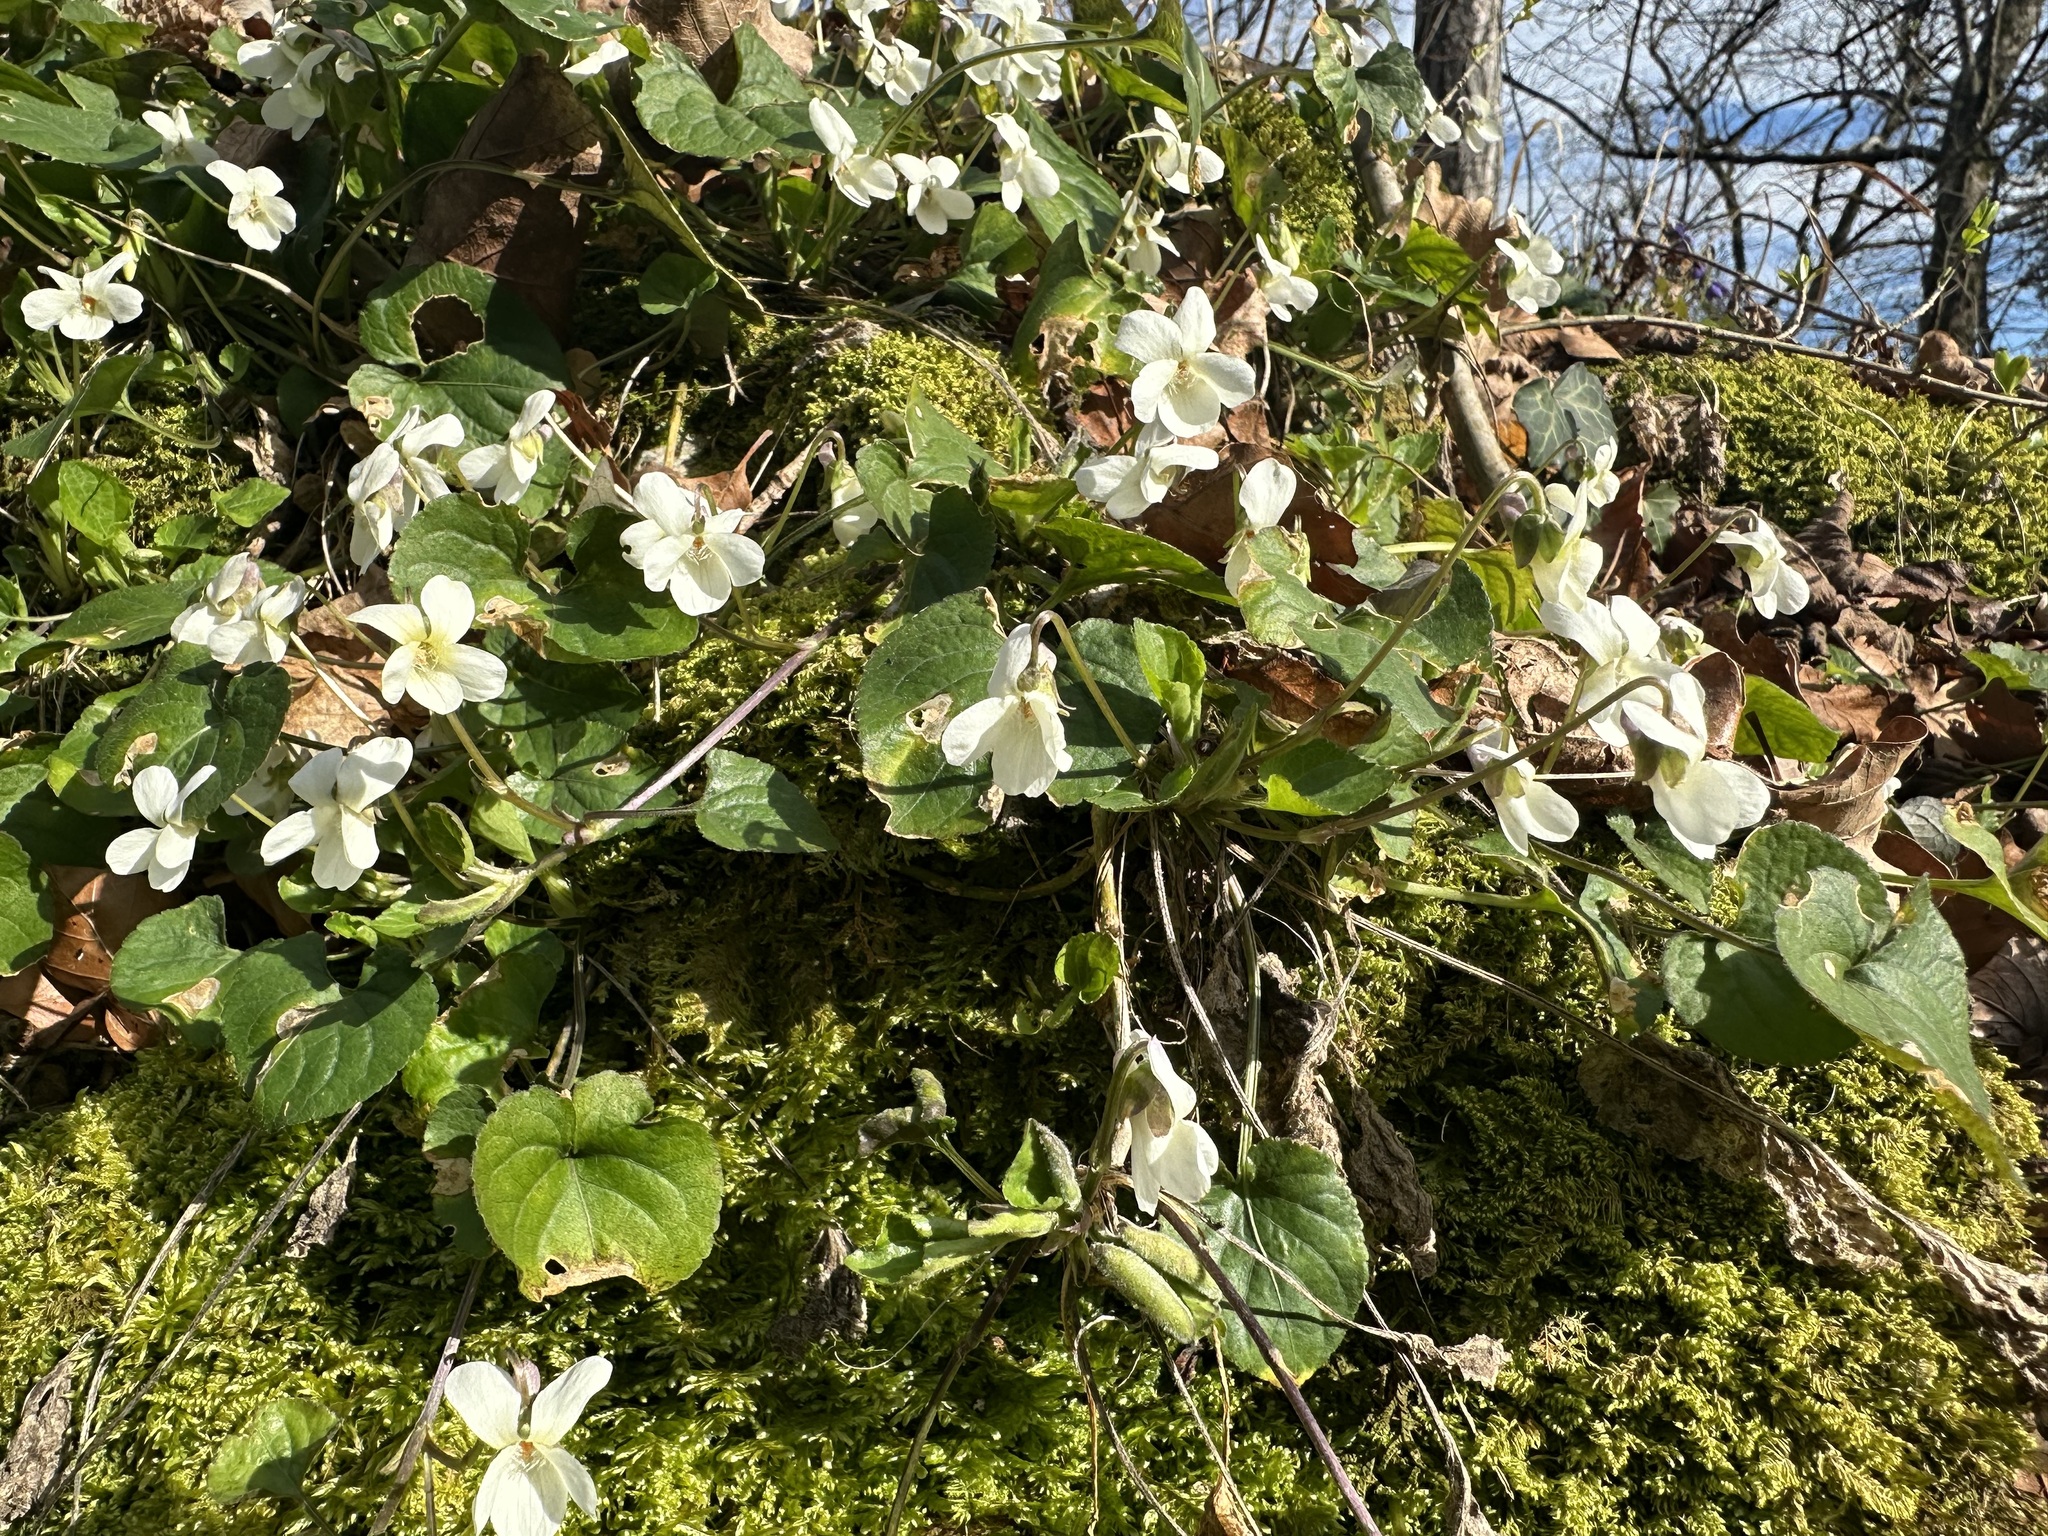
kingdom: Plantae
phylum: Tracheophyta
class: Magnoliopsida
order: Malpighiales
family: Violaceae
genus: Viola
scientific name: Viola alba
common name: White violet
